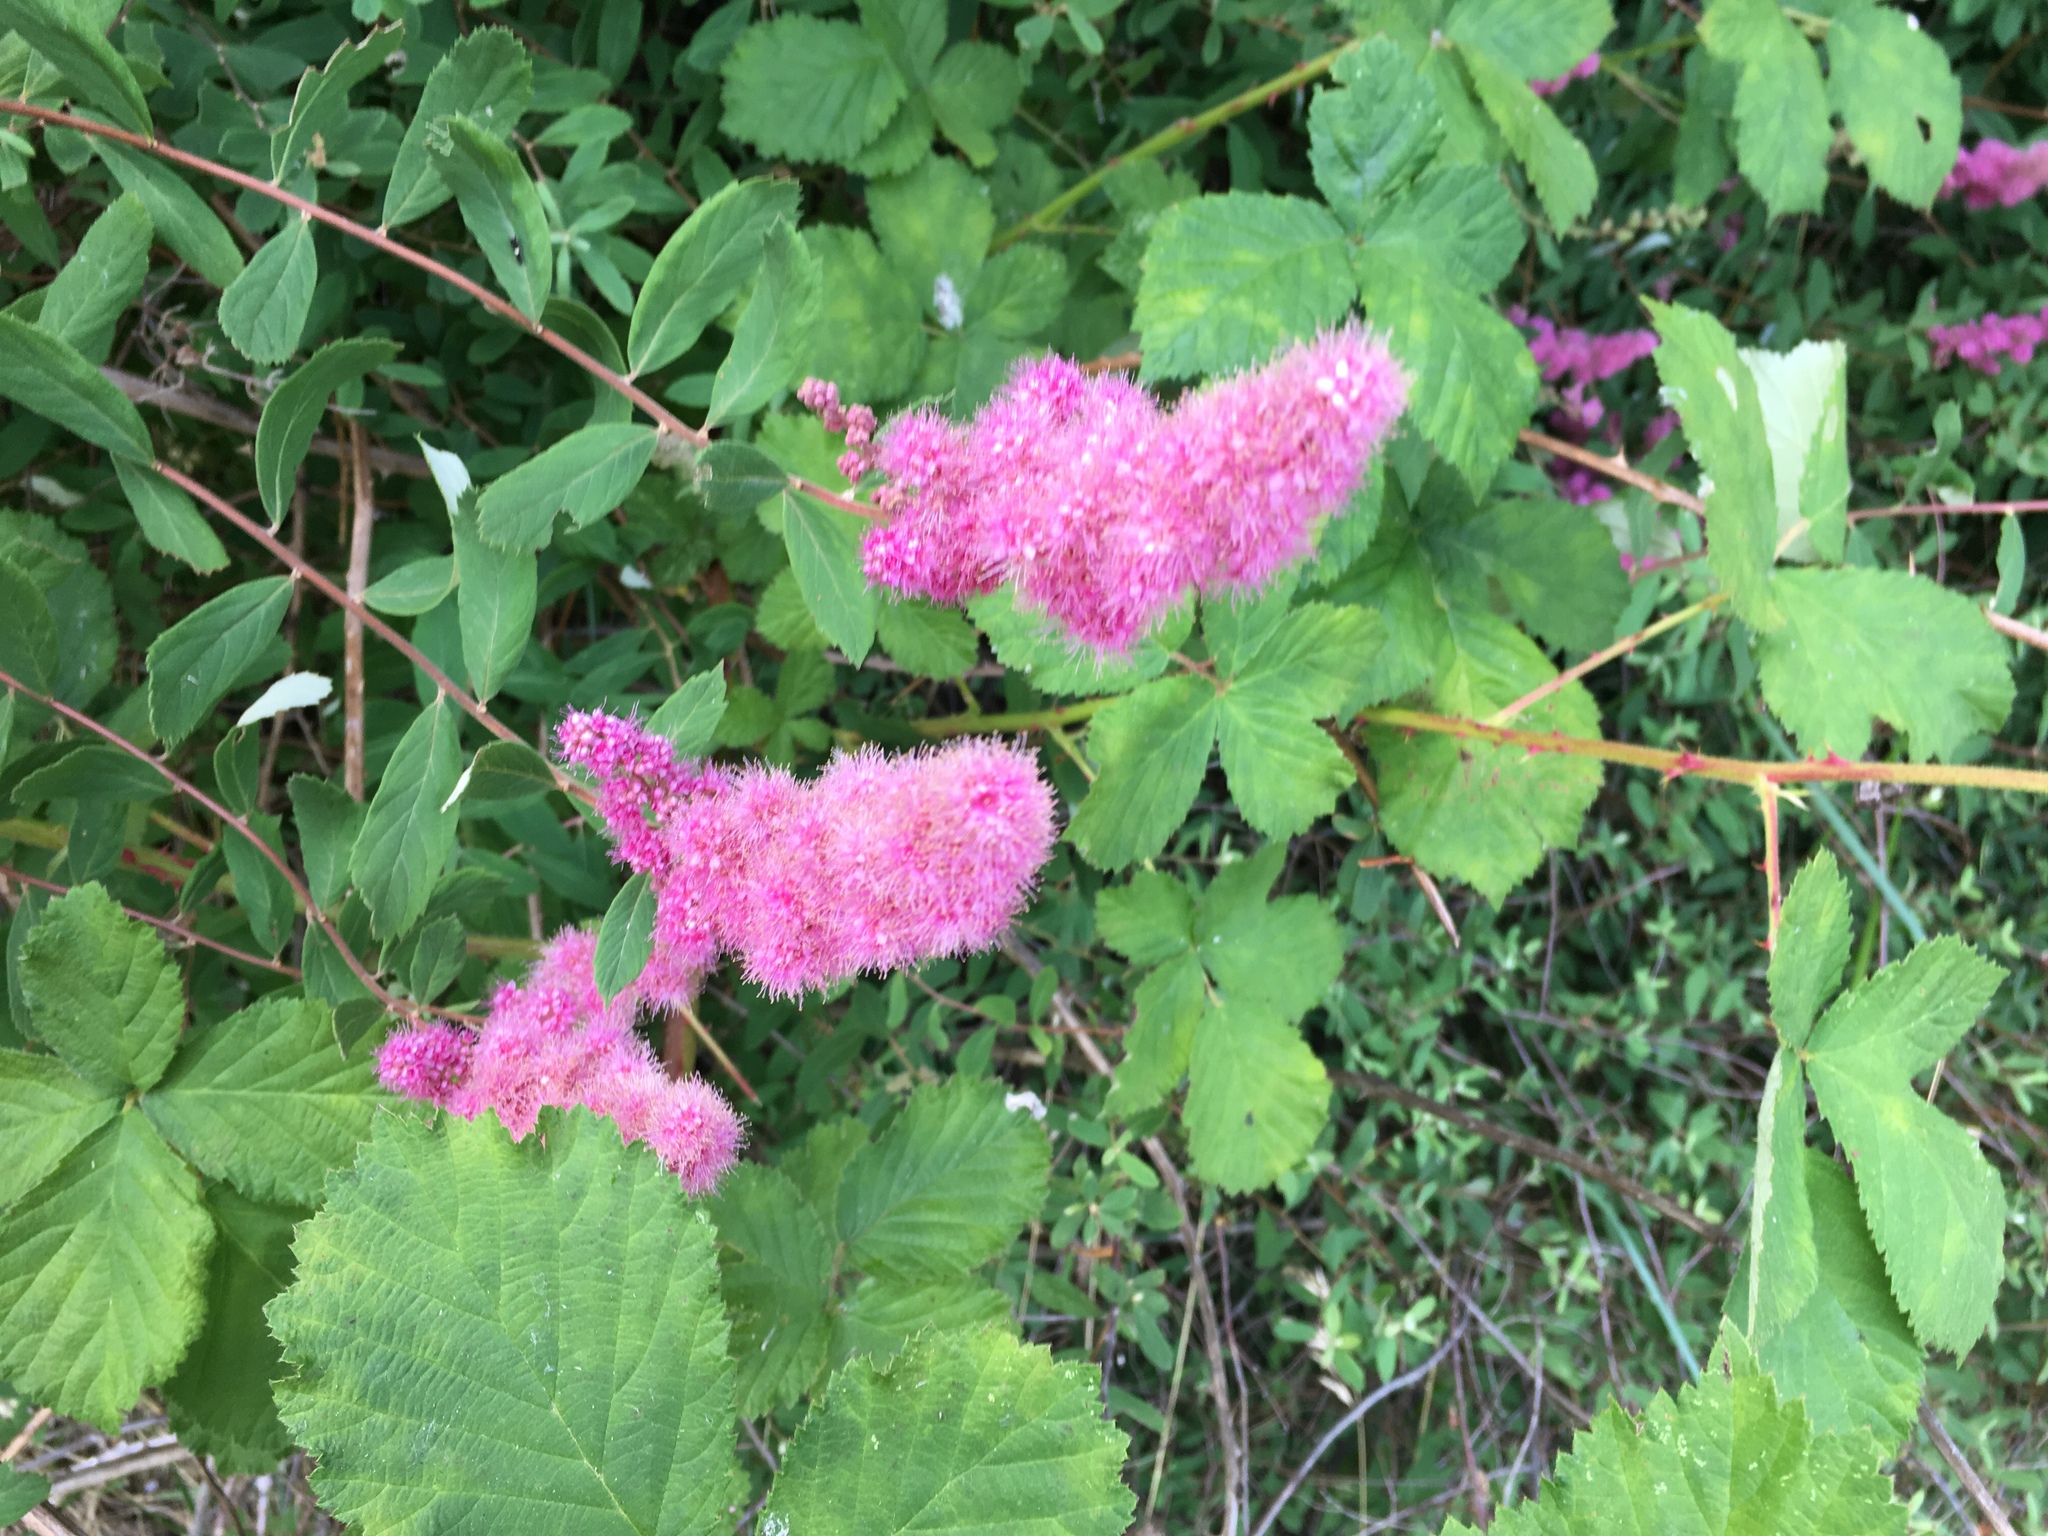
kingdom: Plantae
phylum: Tracheophyta
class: Magnoliopsida
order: Rosales
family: Rosaceae
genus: Spiraea
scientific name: Spiraea douglasii
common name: Steeplebush
